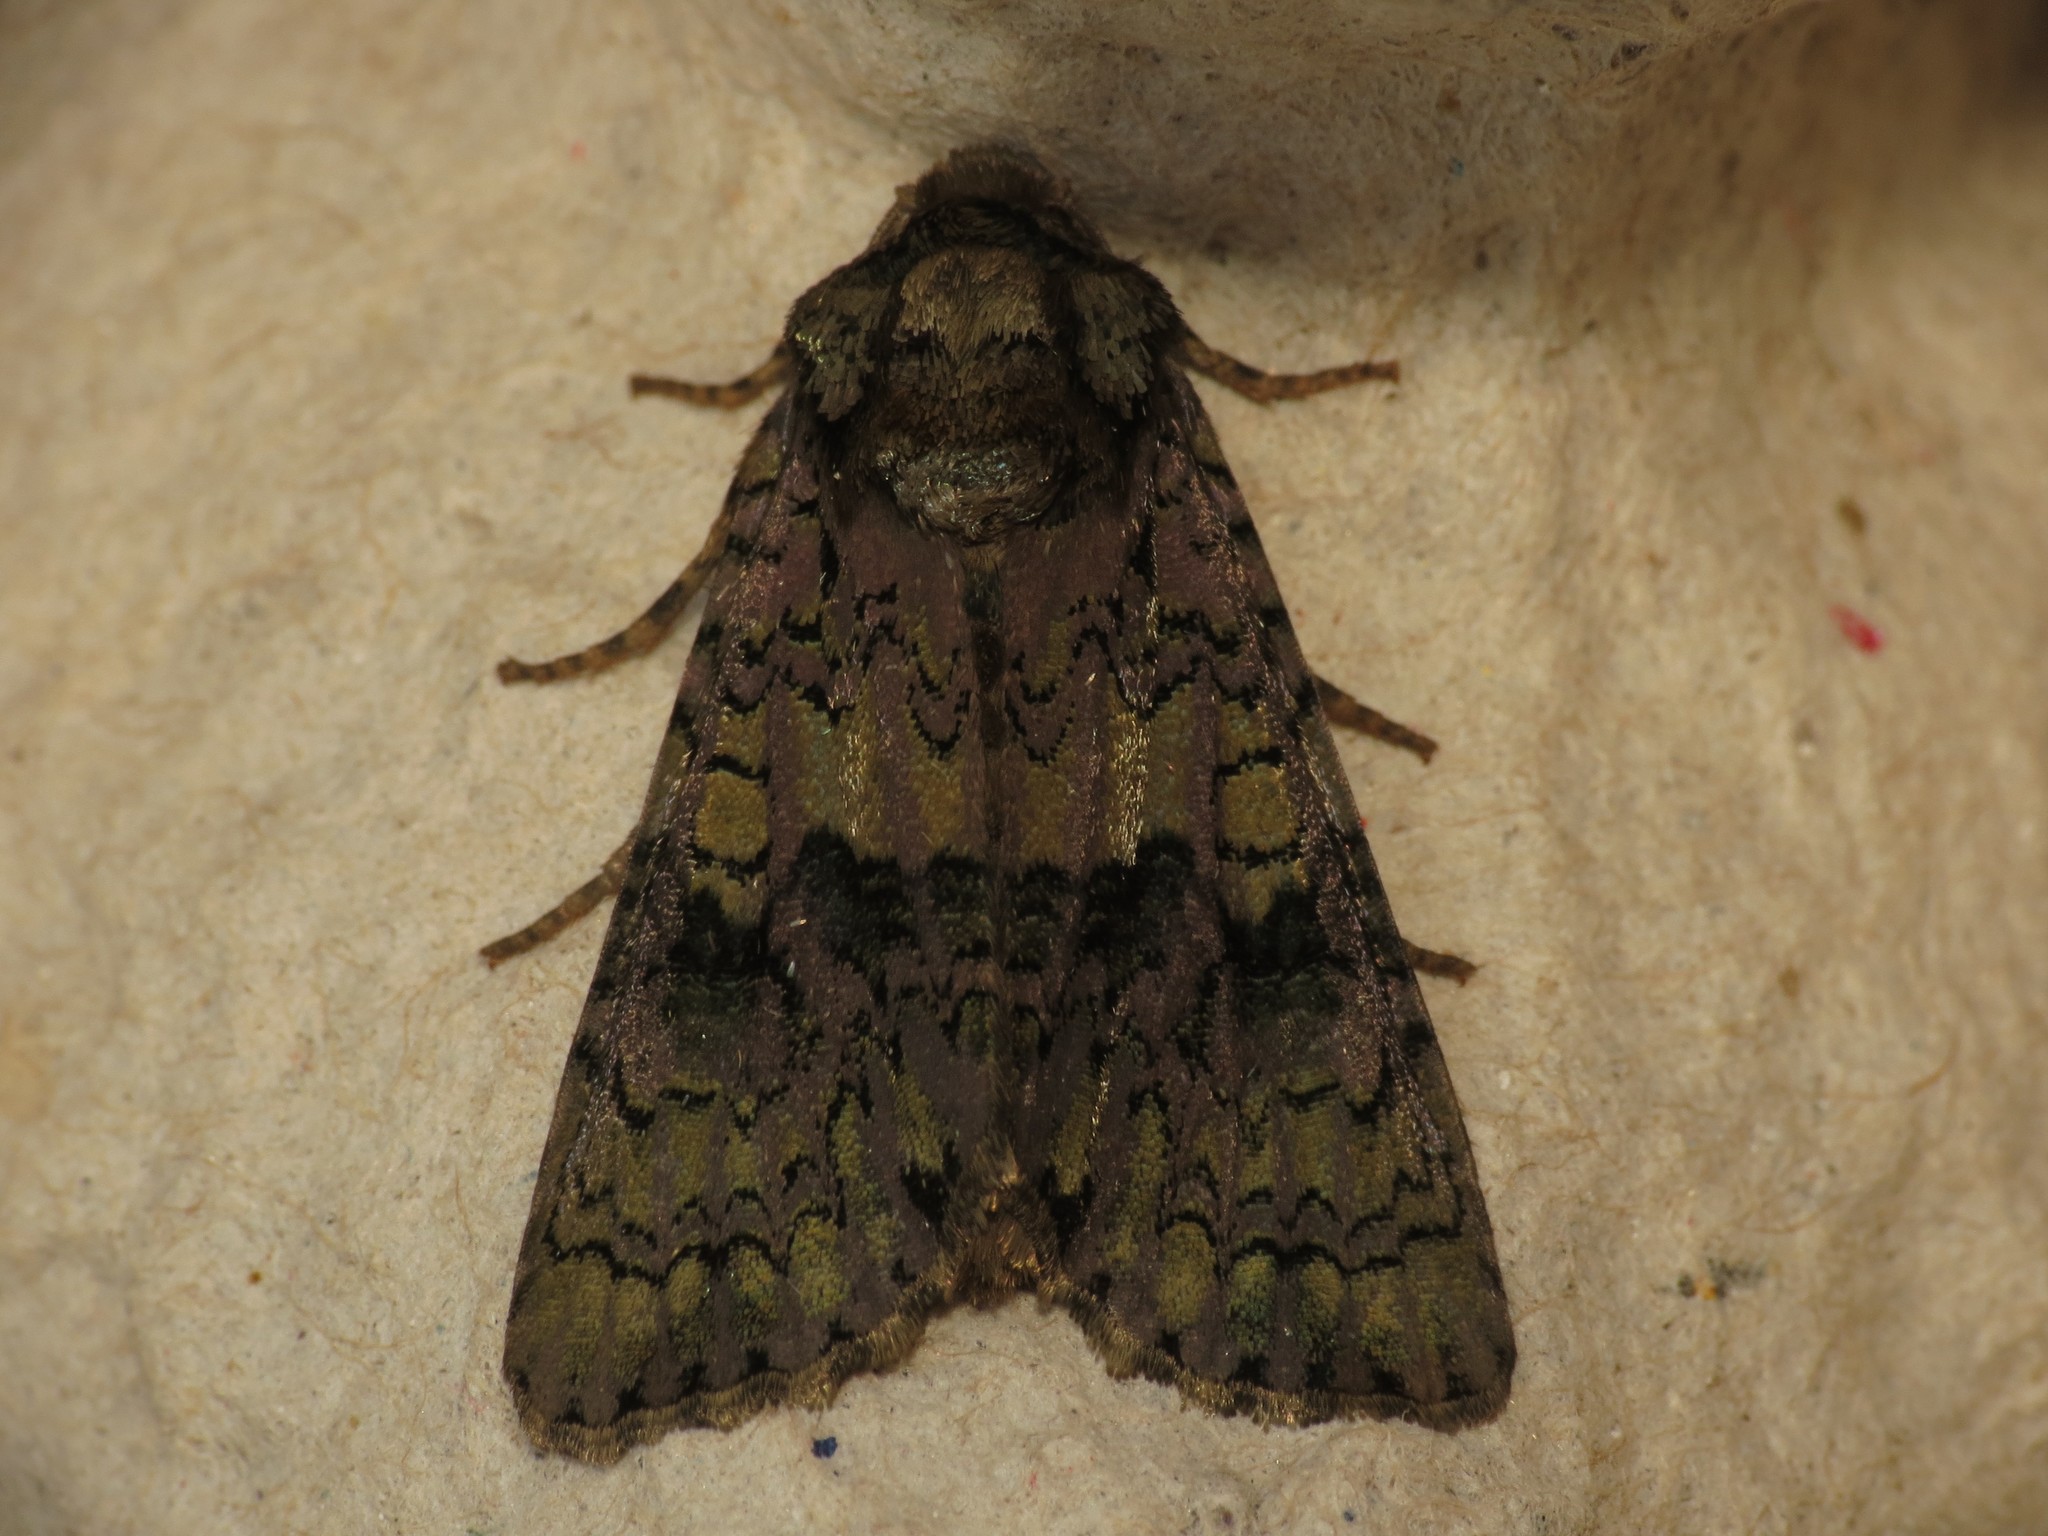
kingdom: Animalia
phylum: Arthropoda
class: Insecta
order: Lepidoptera
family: Noctuidae
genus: Craniophora
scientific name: Craniophora ligustri
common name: Coronet
